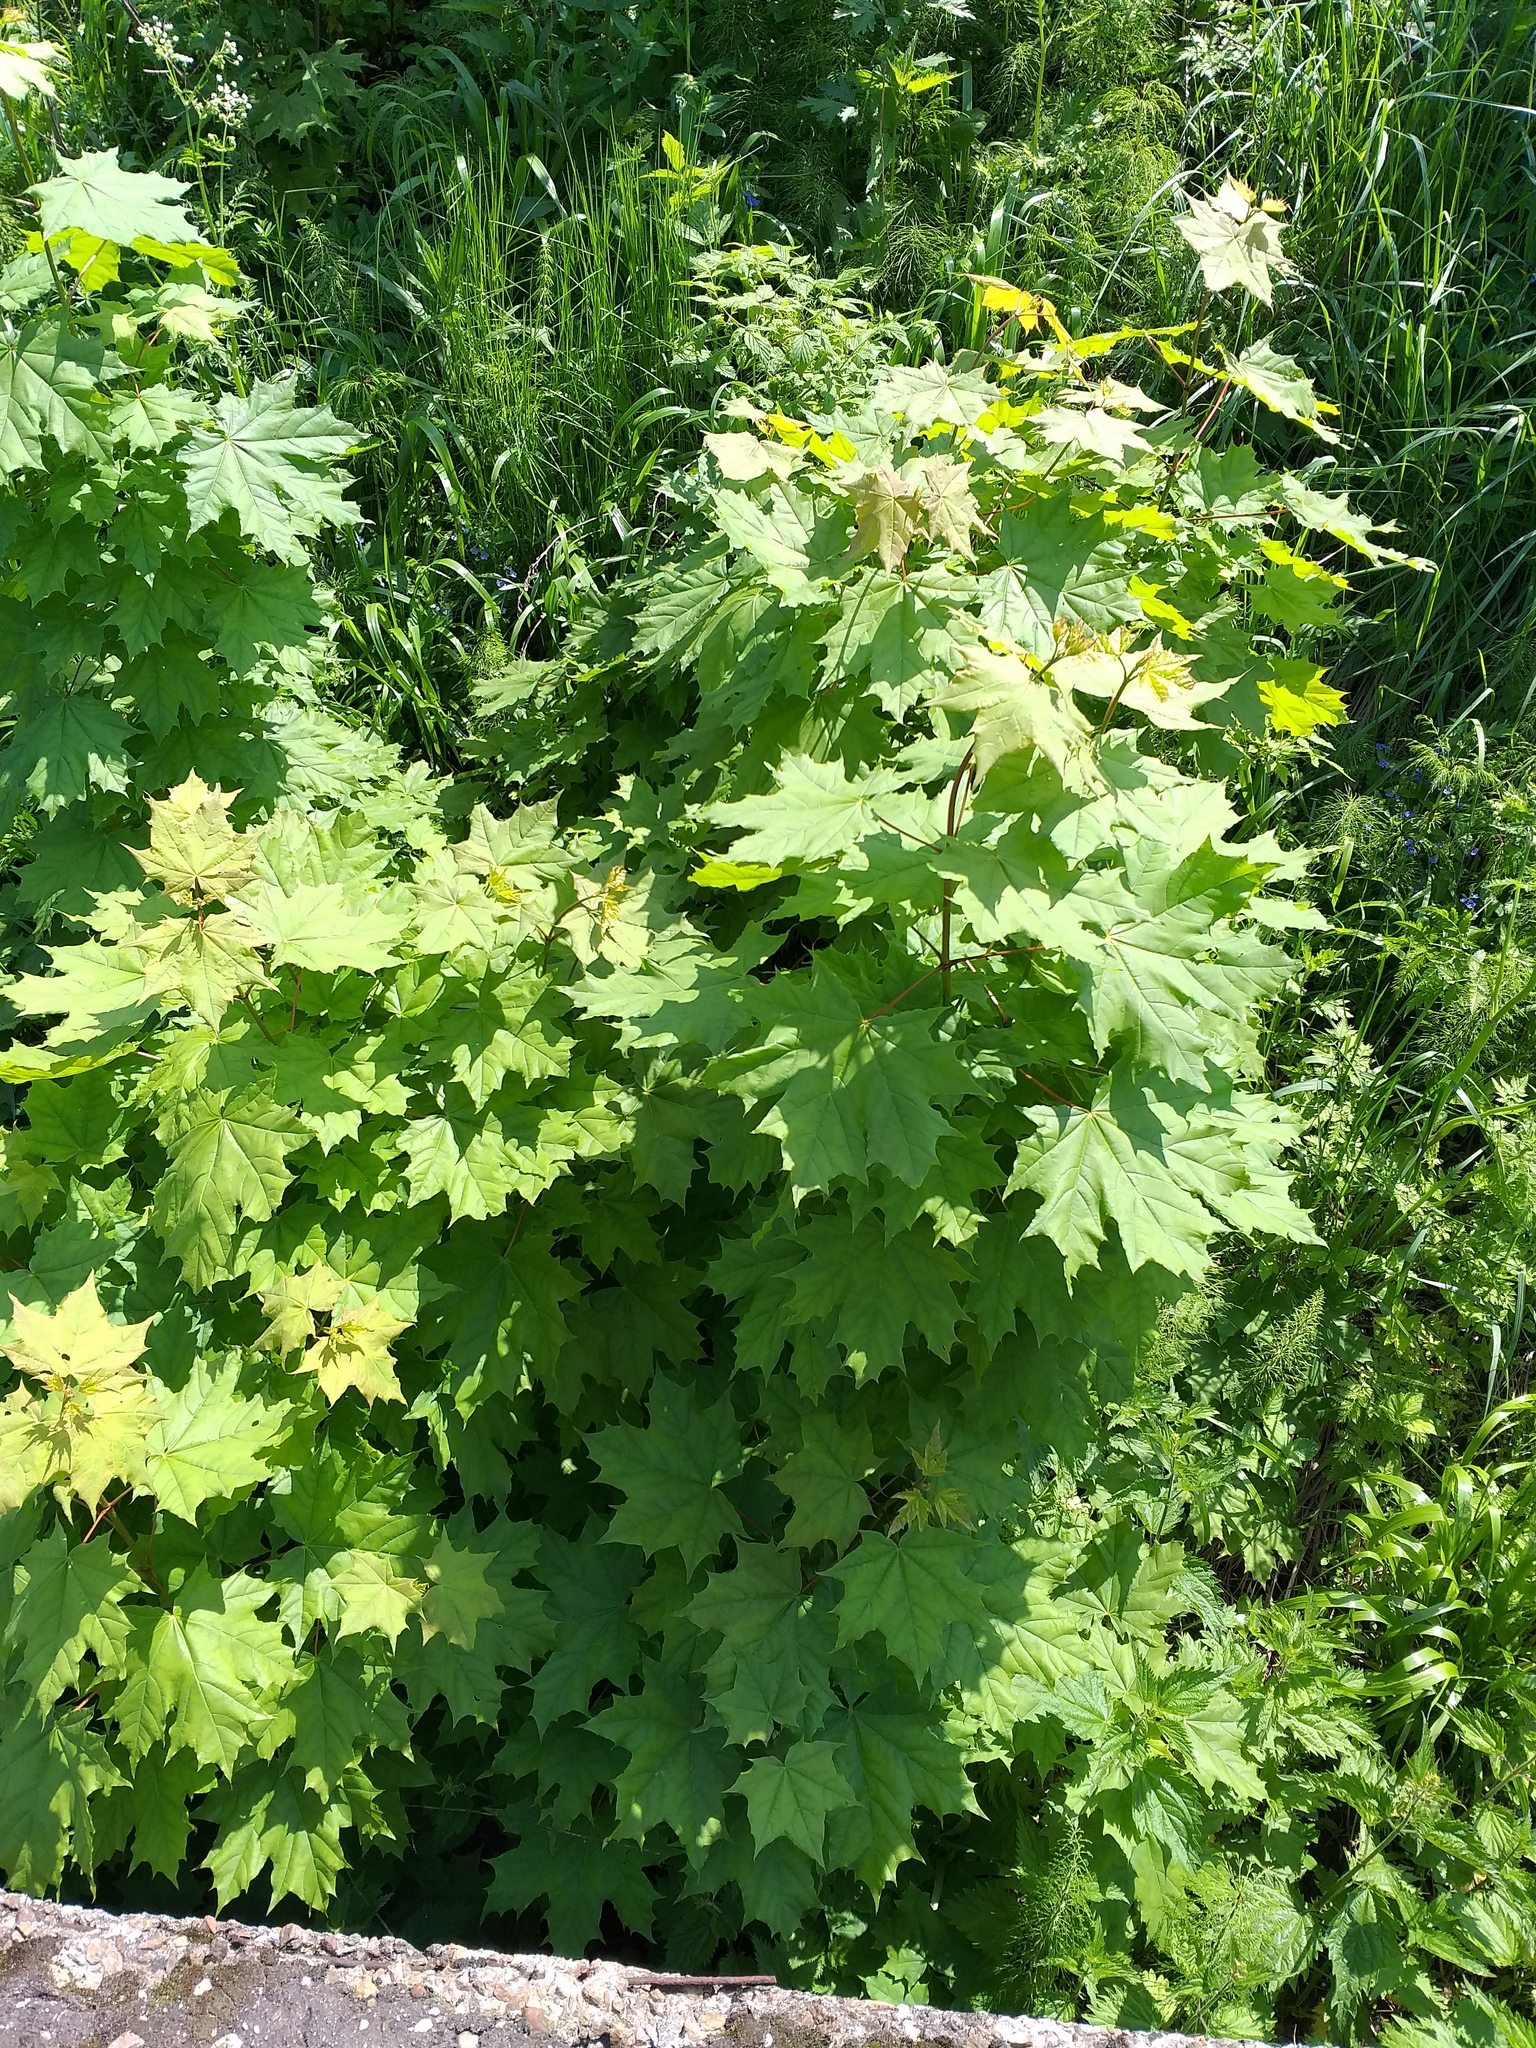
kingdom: Plantae
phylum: Tracheophyta
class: Magnoliopsida
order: Sapindales
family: Sapindaceae
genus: Acer
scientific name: Acer platanoides
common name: Norway maple
